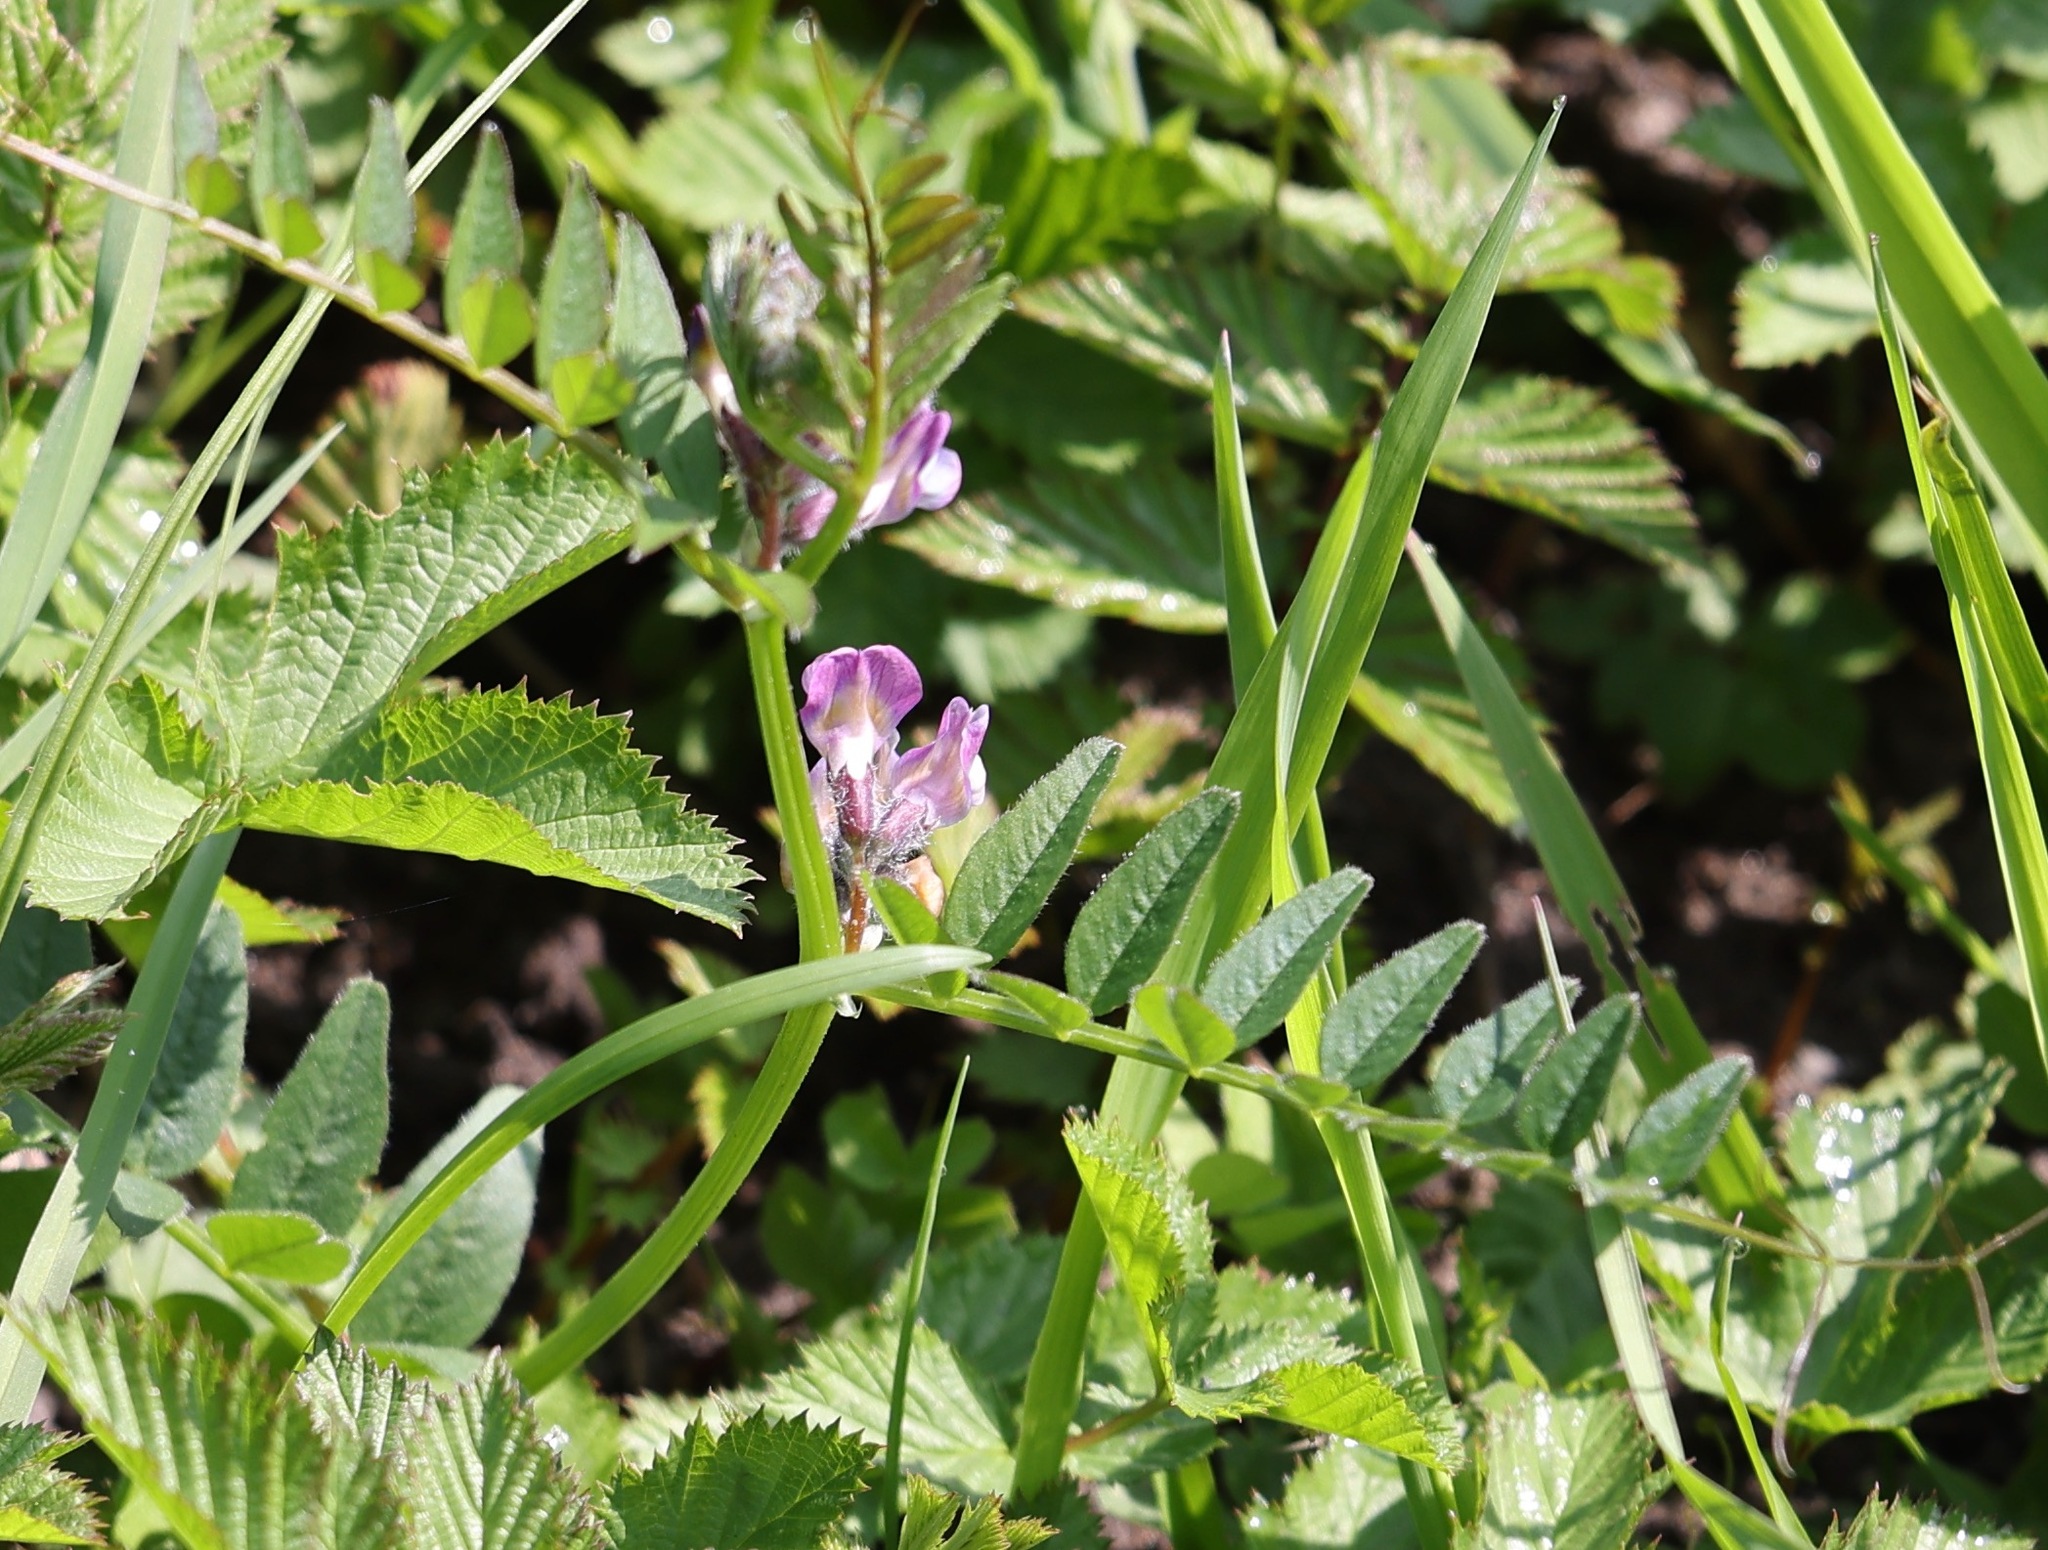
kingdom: Plantae
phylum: Tracheophyta
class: Magnoliopsida
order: Fabales
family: Fabaceae
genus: Vicia
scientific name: Vicia sepium
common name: Bush vetch
